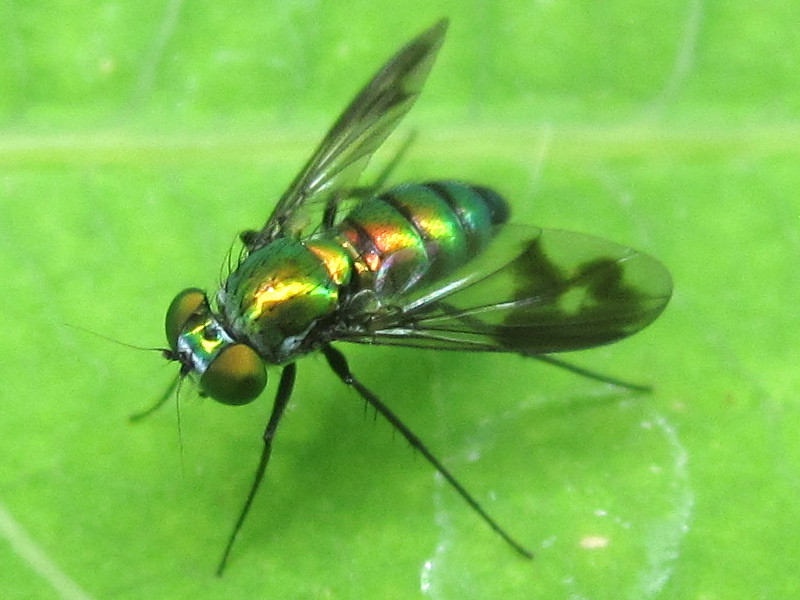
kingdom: Animalia
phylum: Arthropoda
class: Insecta
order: Diptera
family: Dolichopodidae
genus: Condylostylus
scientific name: Condylostylus patibulatus
